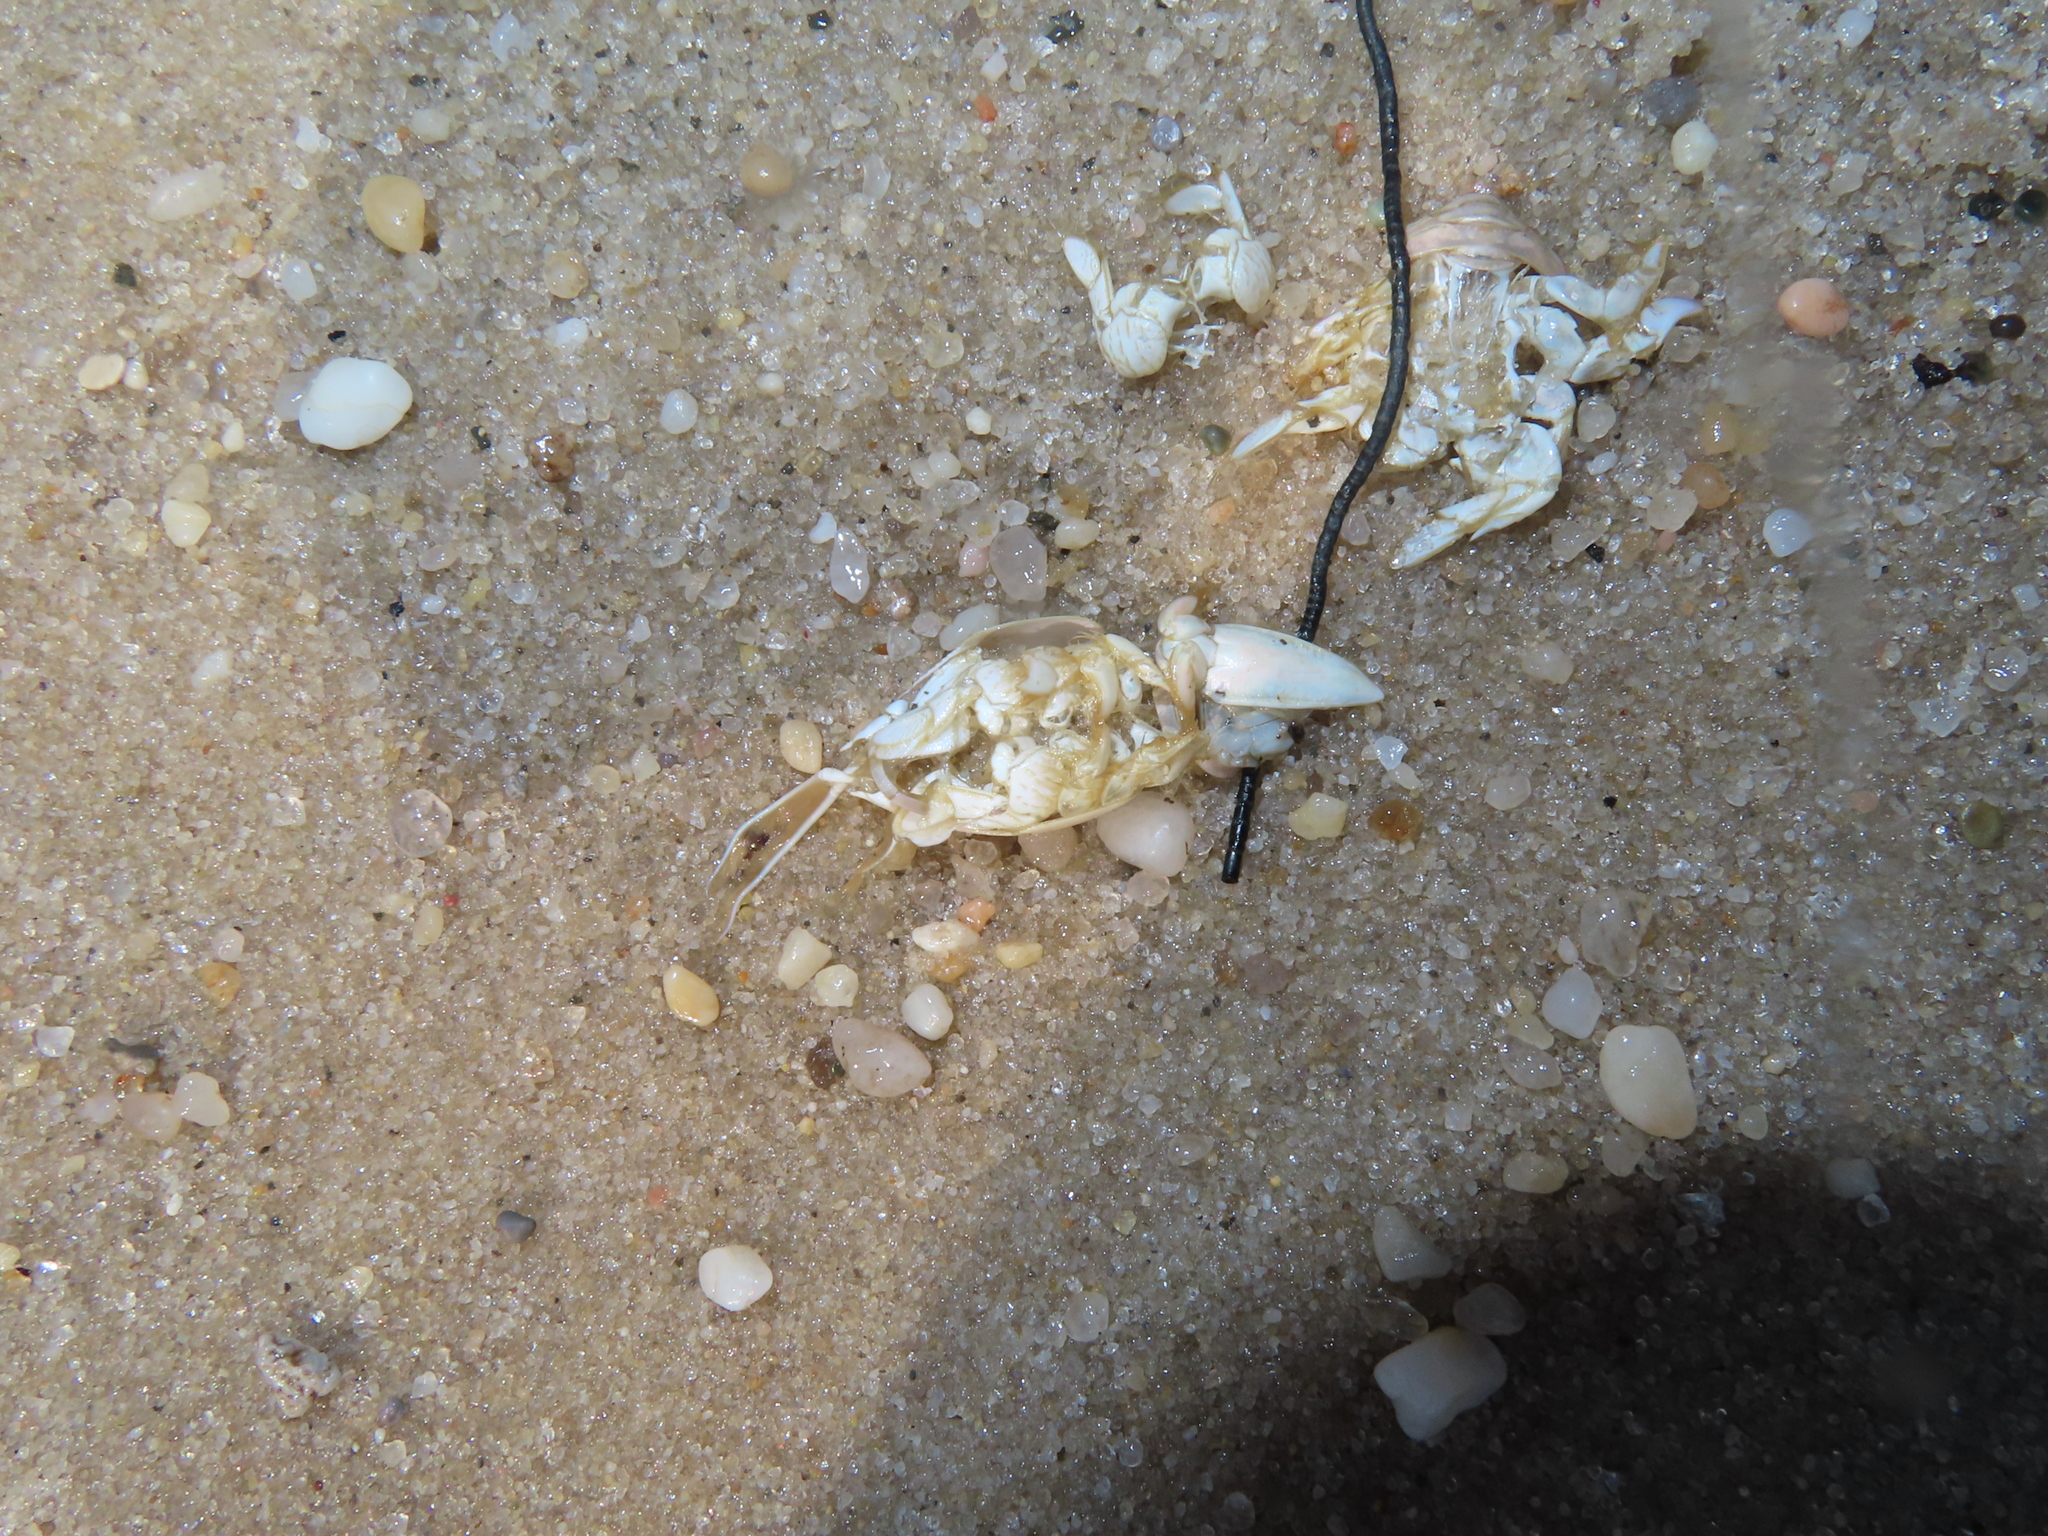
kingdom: Animalia
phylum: Arthropoda
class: Malacostraca
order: Decapoda
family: Hippidae
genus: Emerita
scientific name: Emerita talpoida
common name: Atlantic sand crab
